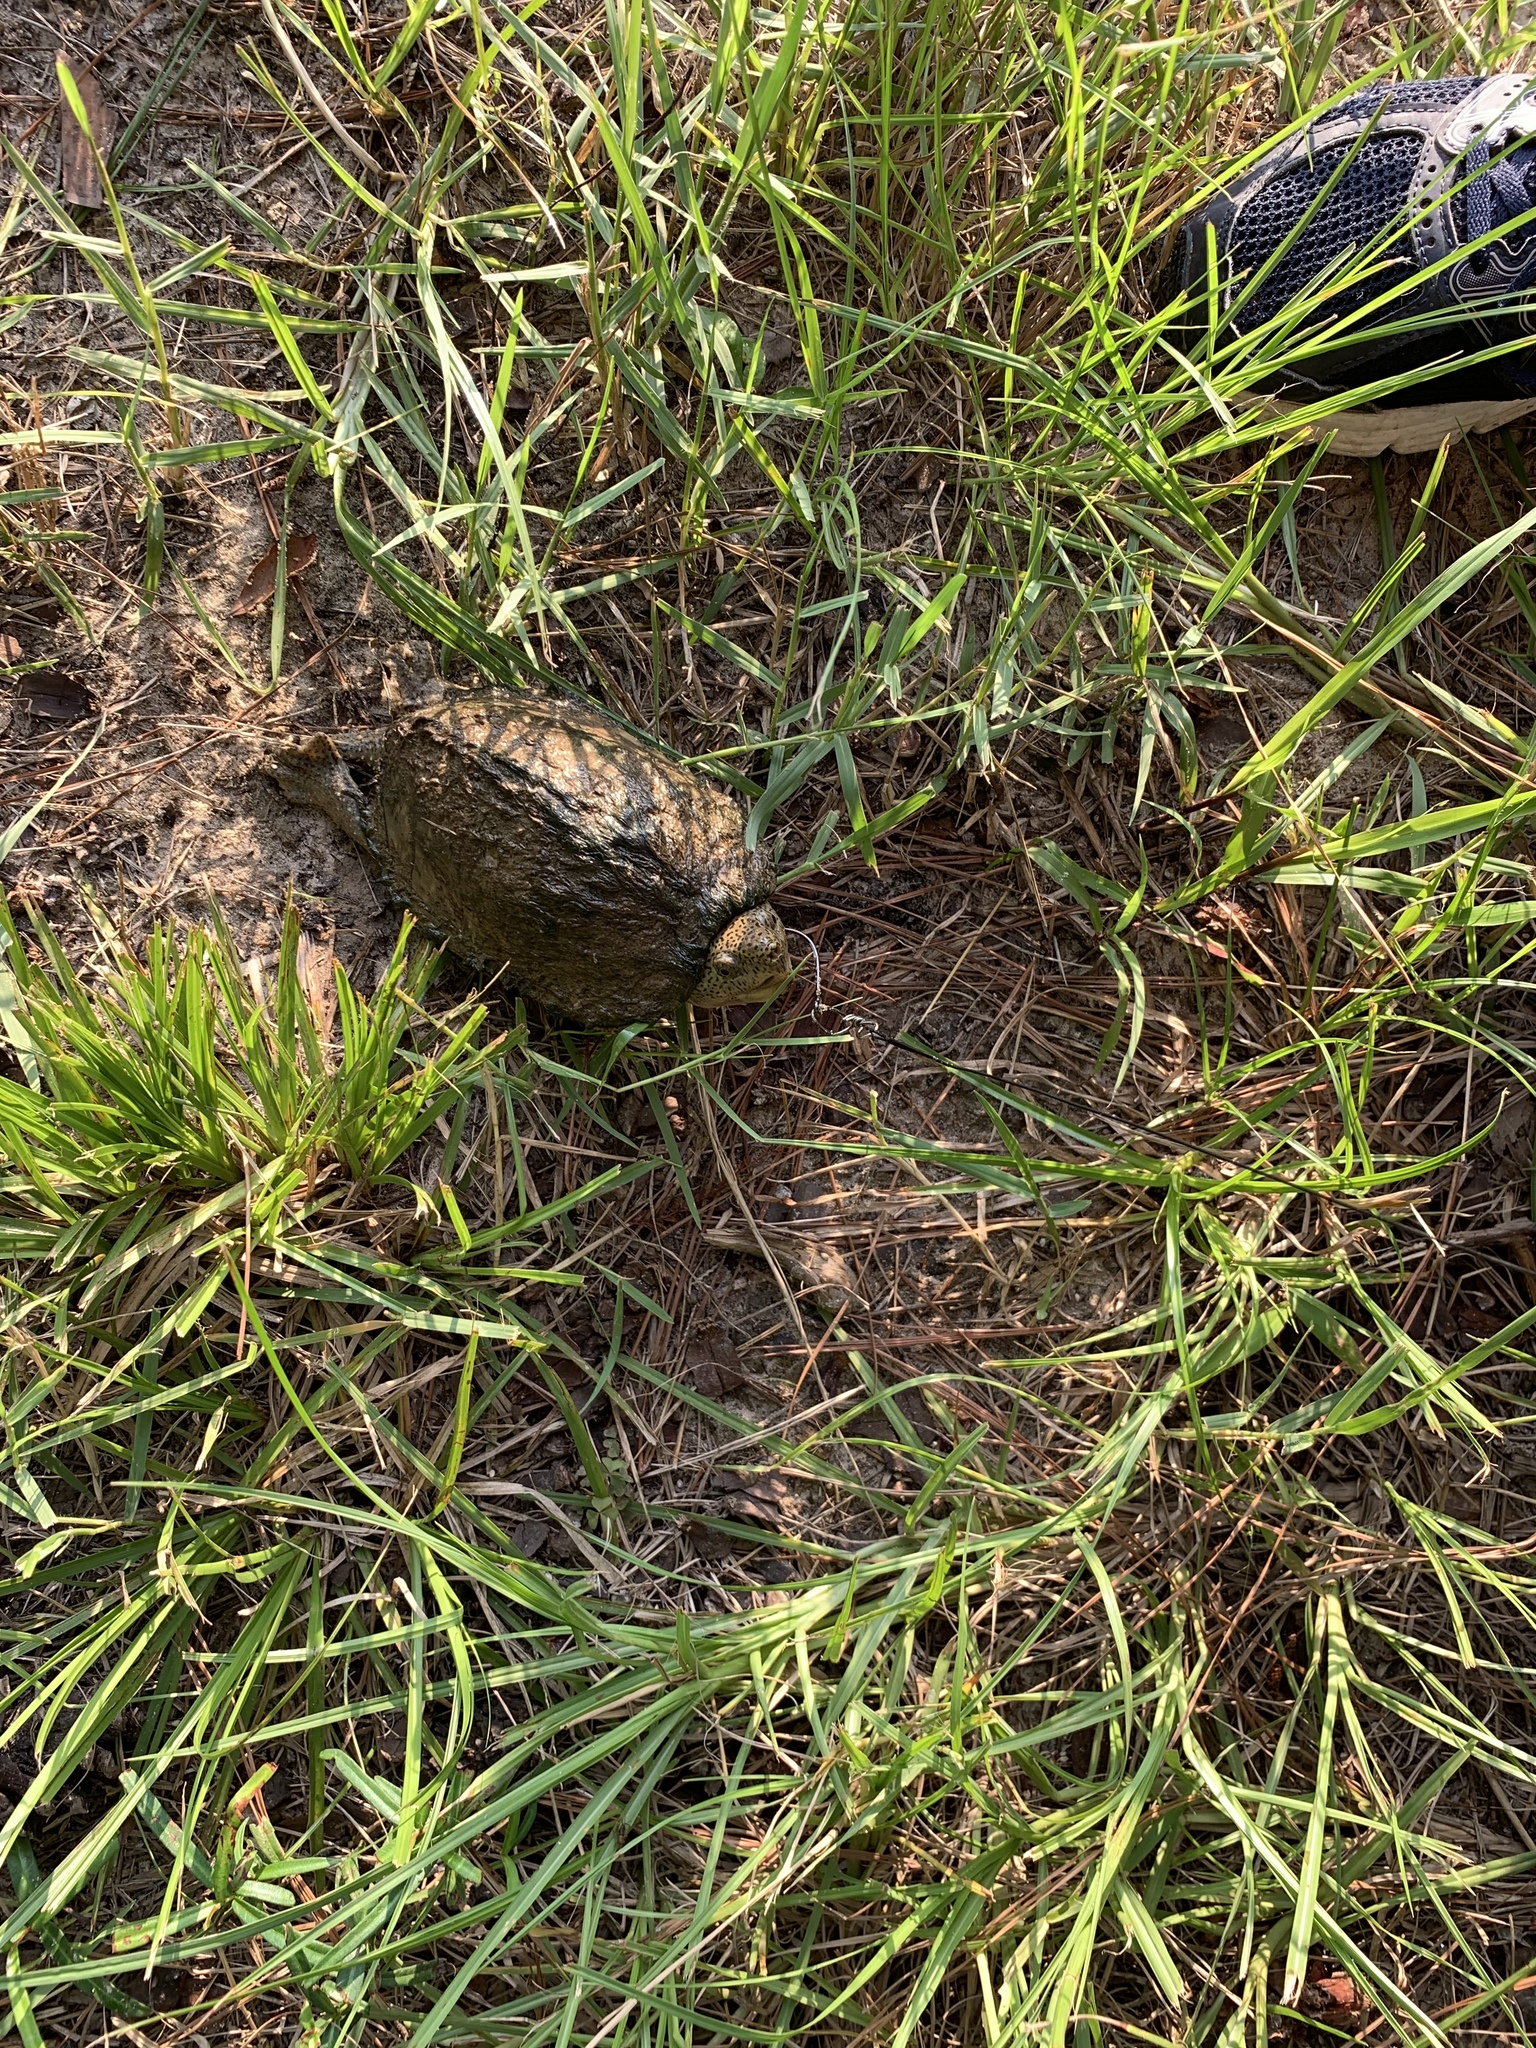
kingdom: Animalia
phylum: Chordata
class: Testudines
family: Kinosternidae
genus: Sternotherus
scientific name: Sternotherus carinatus
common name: Razor-backed musk turtle
